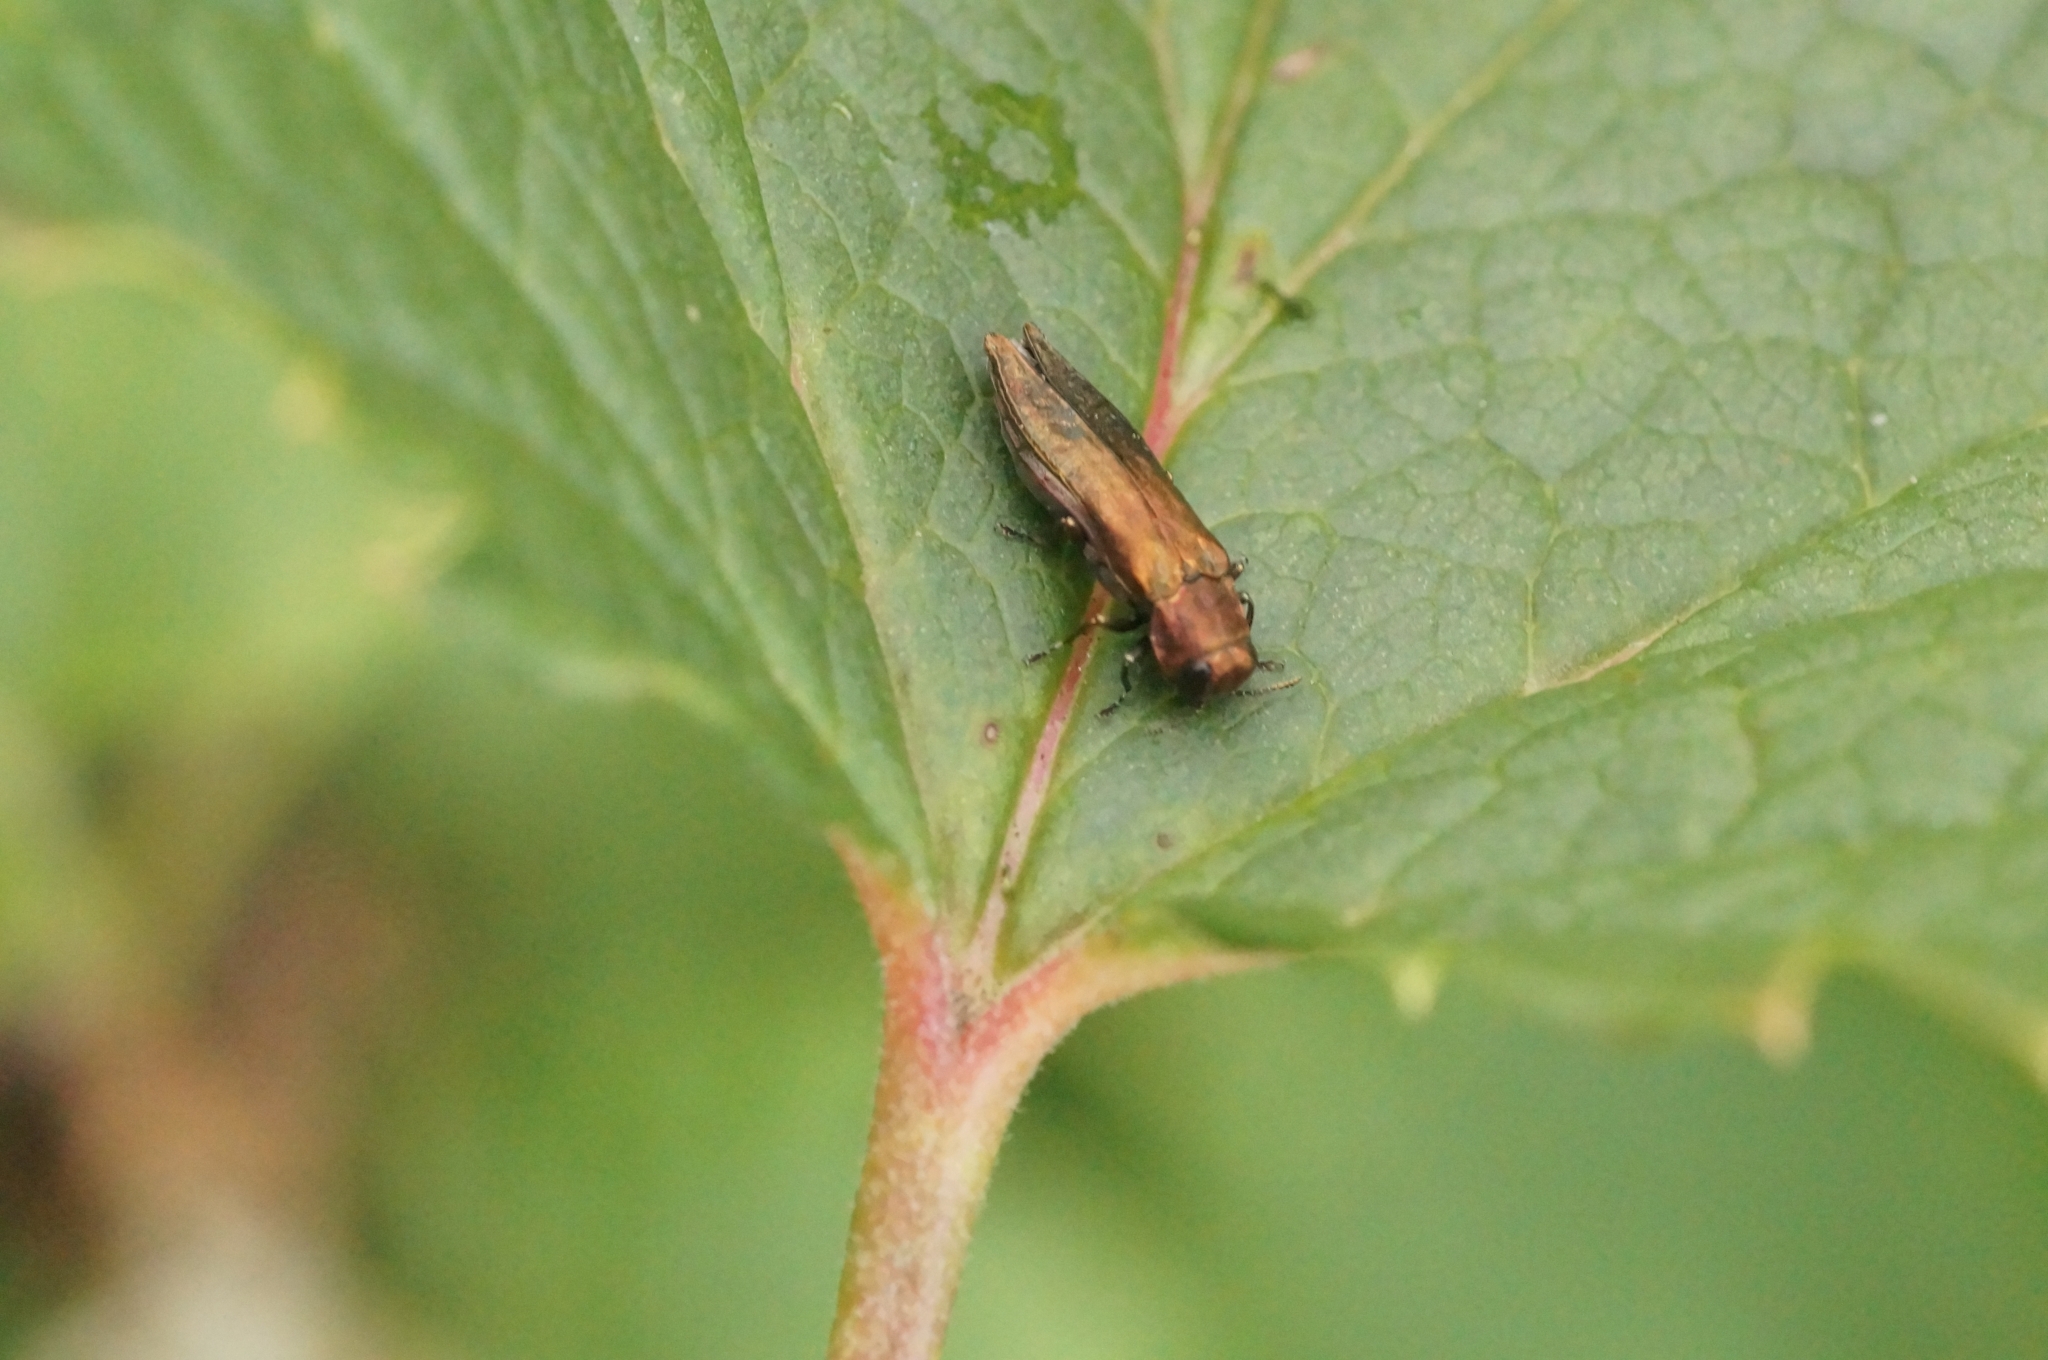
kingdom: Animalia
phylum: Arthropoda
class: Insecta
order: Coleoptera
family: Buprestidae
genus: Agrilus
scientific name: Agrilus ribesi
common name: Currant stem girdler
